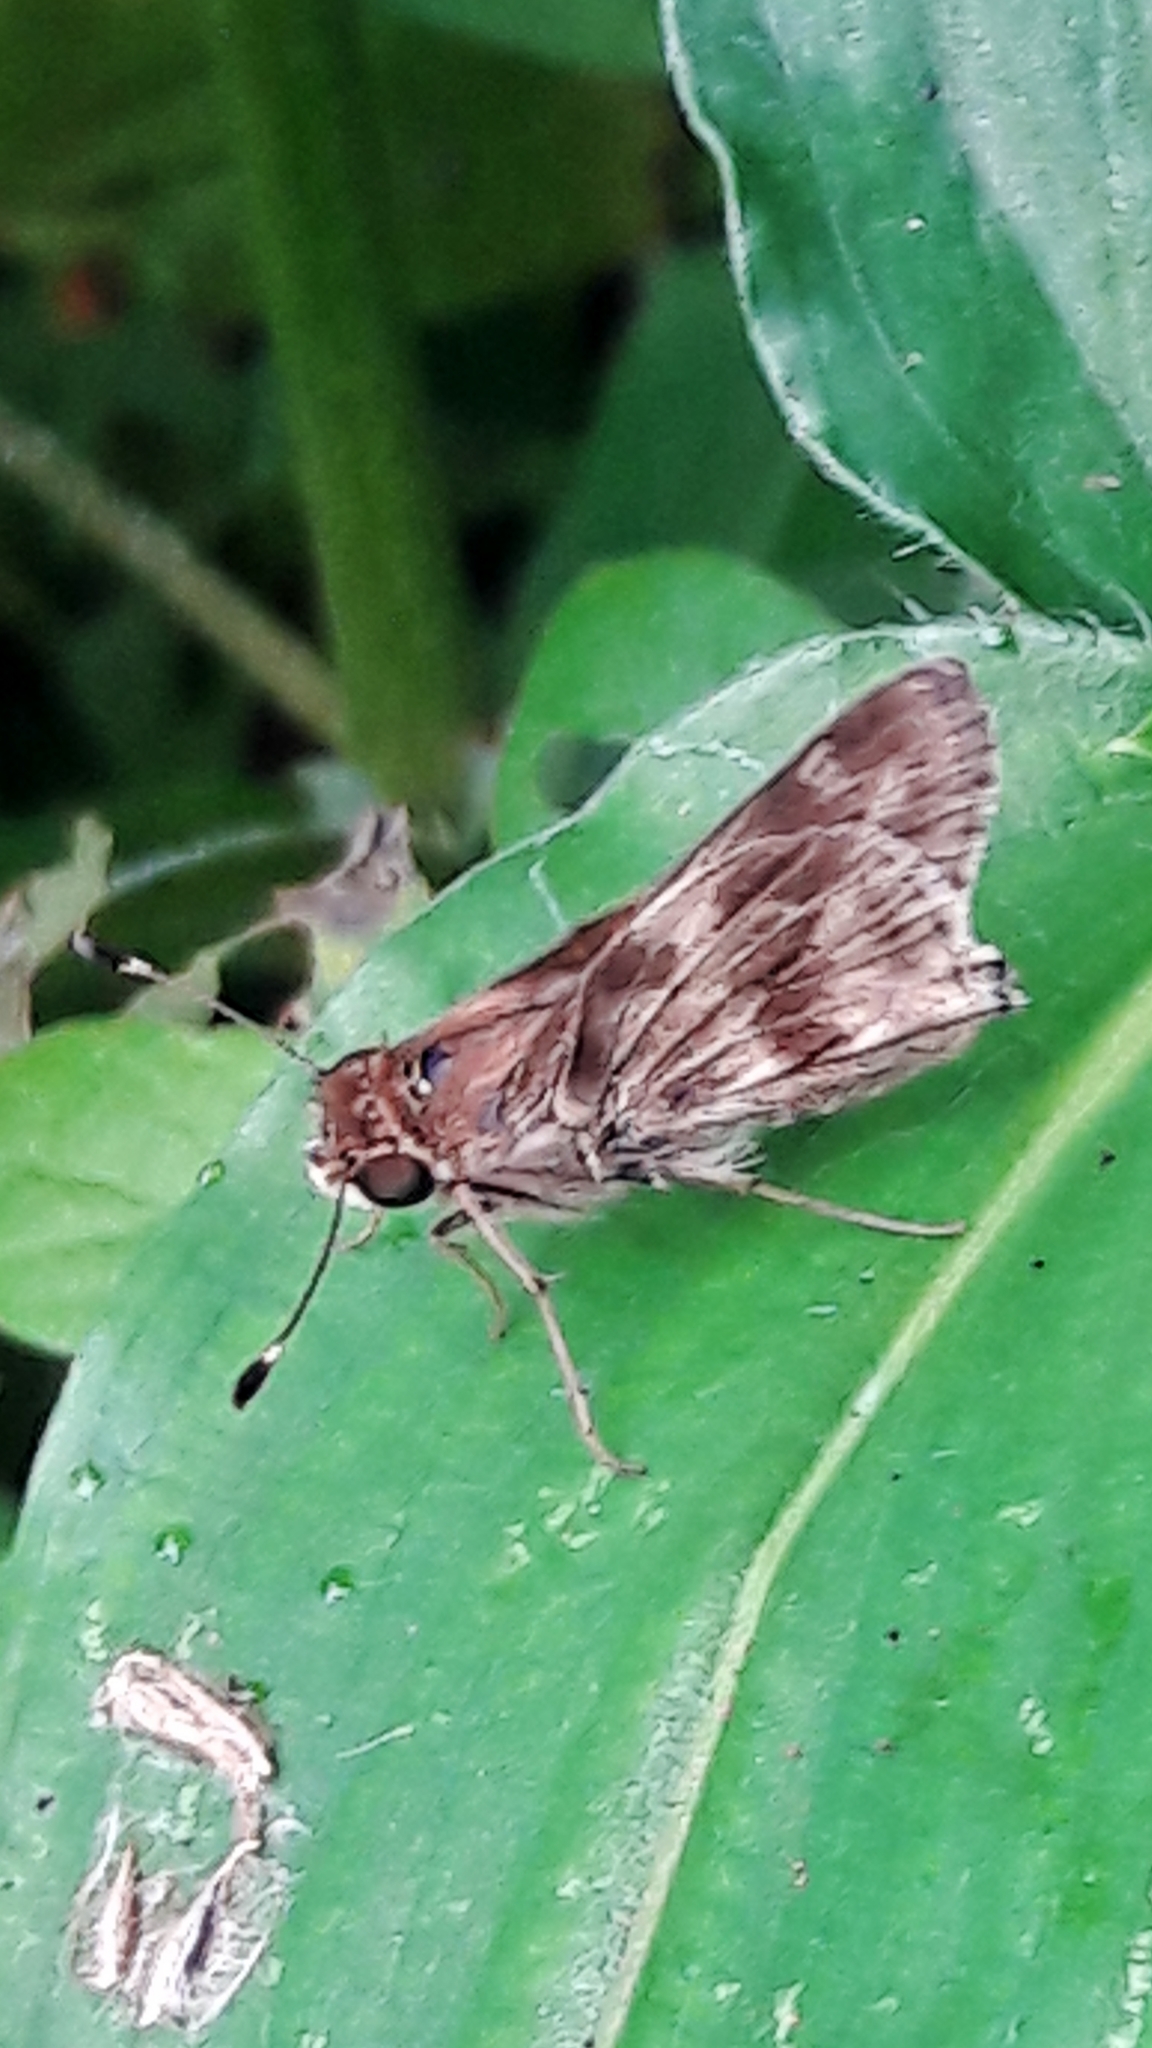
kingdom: Animalia
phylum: Arthropoda
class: Insecta
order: Lepidoptera
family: Hesperiidae
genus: Pompeius
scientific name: Pompeius pompeius
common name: Pompeius skipper
